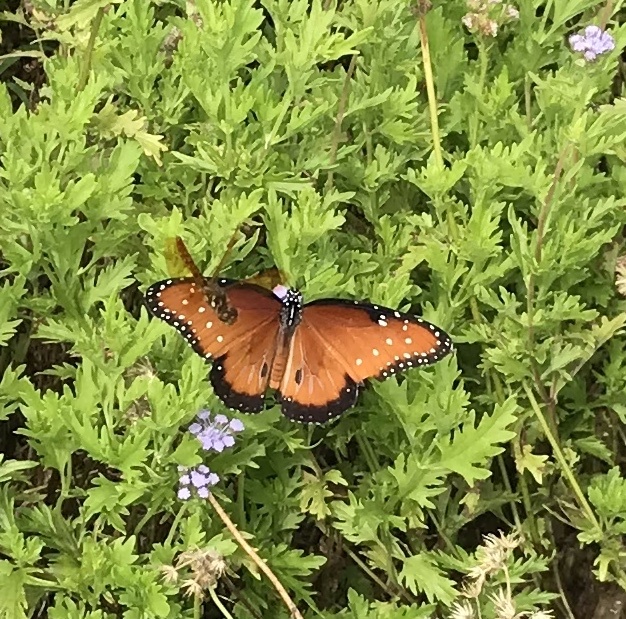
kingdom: Animalia
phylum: Arthropoda
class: Insecta
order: Lepidoptera
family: Nymphalidae
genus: Danaus
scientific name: Danaus gilippus
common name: Queen
